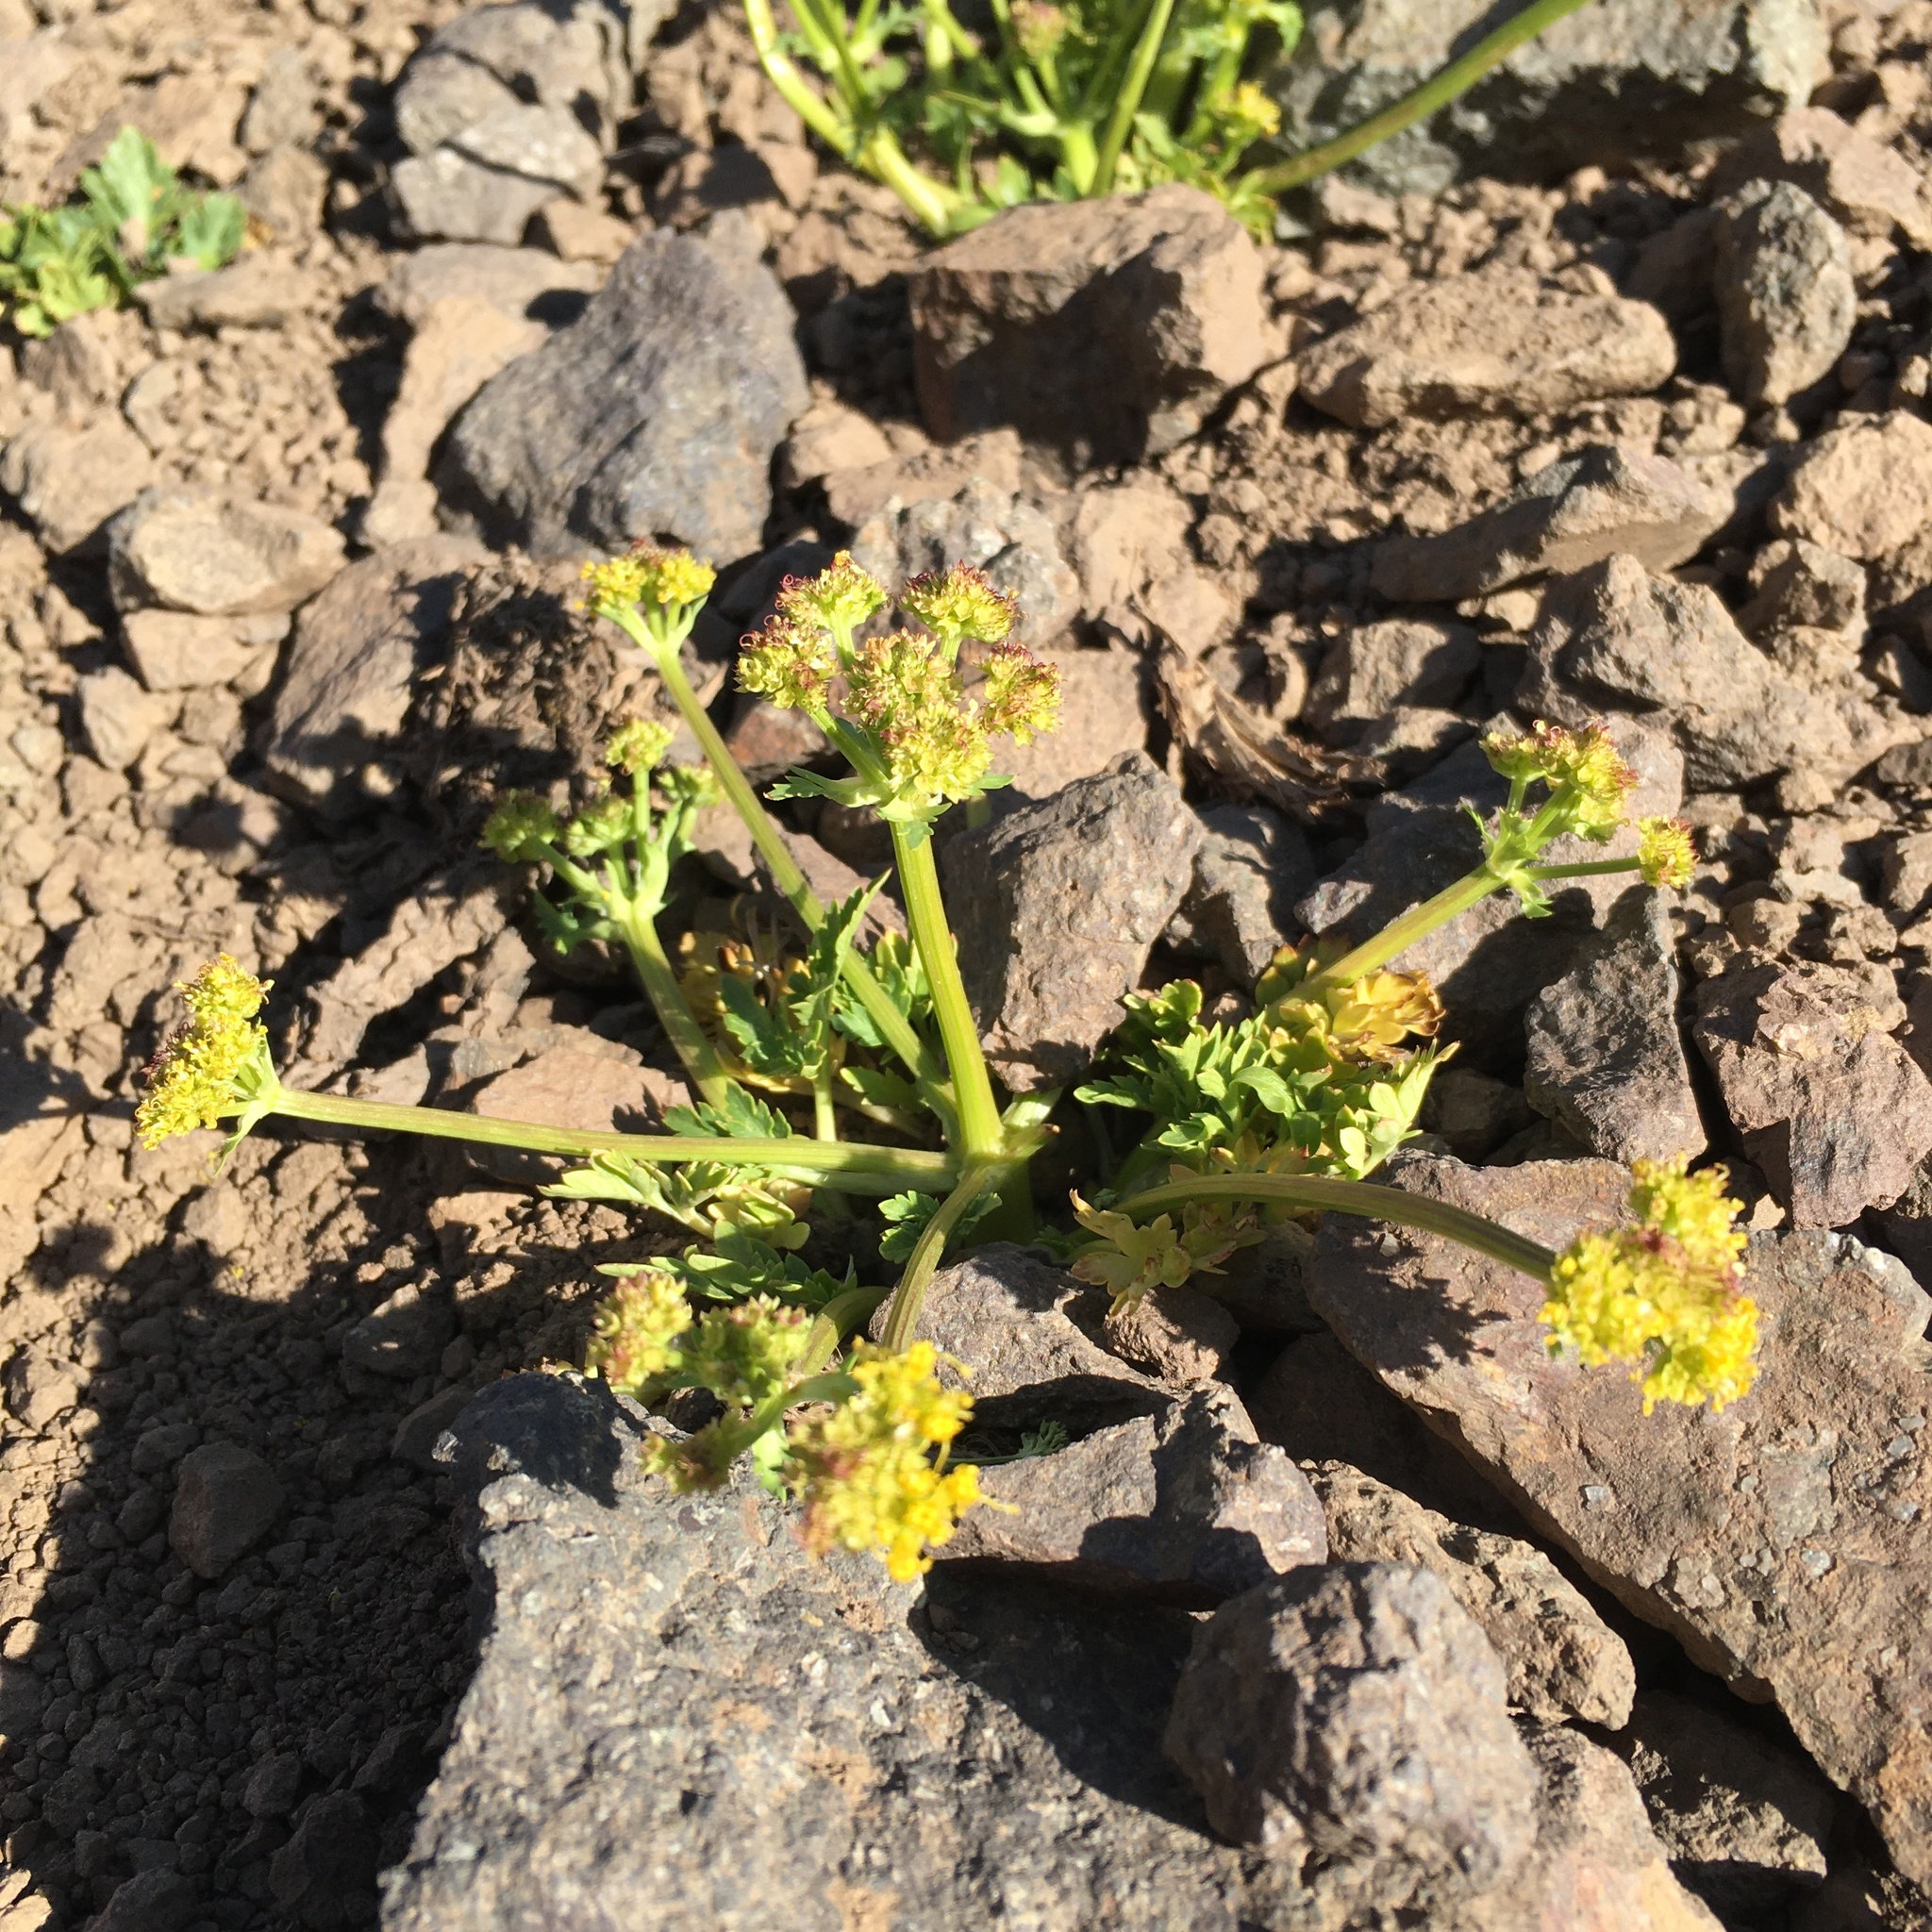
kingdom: Plantae
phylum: Tracheophyta
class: Magnoliopsida
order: Apiales
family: Apiaceae
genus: Sanicula
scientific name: Sanicula graveolens
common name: Sierra sanicle
